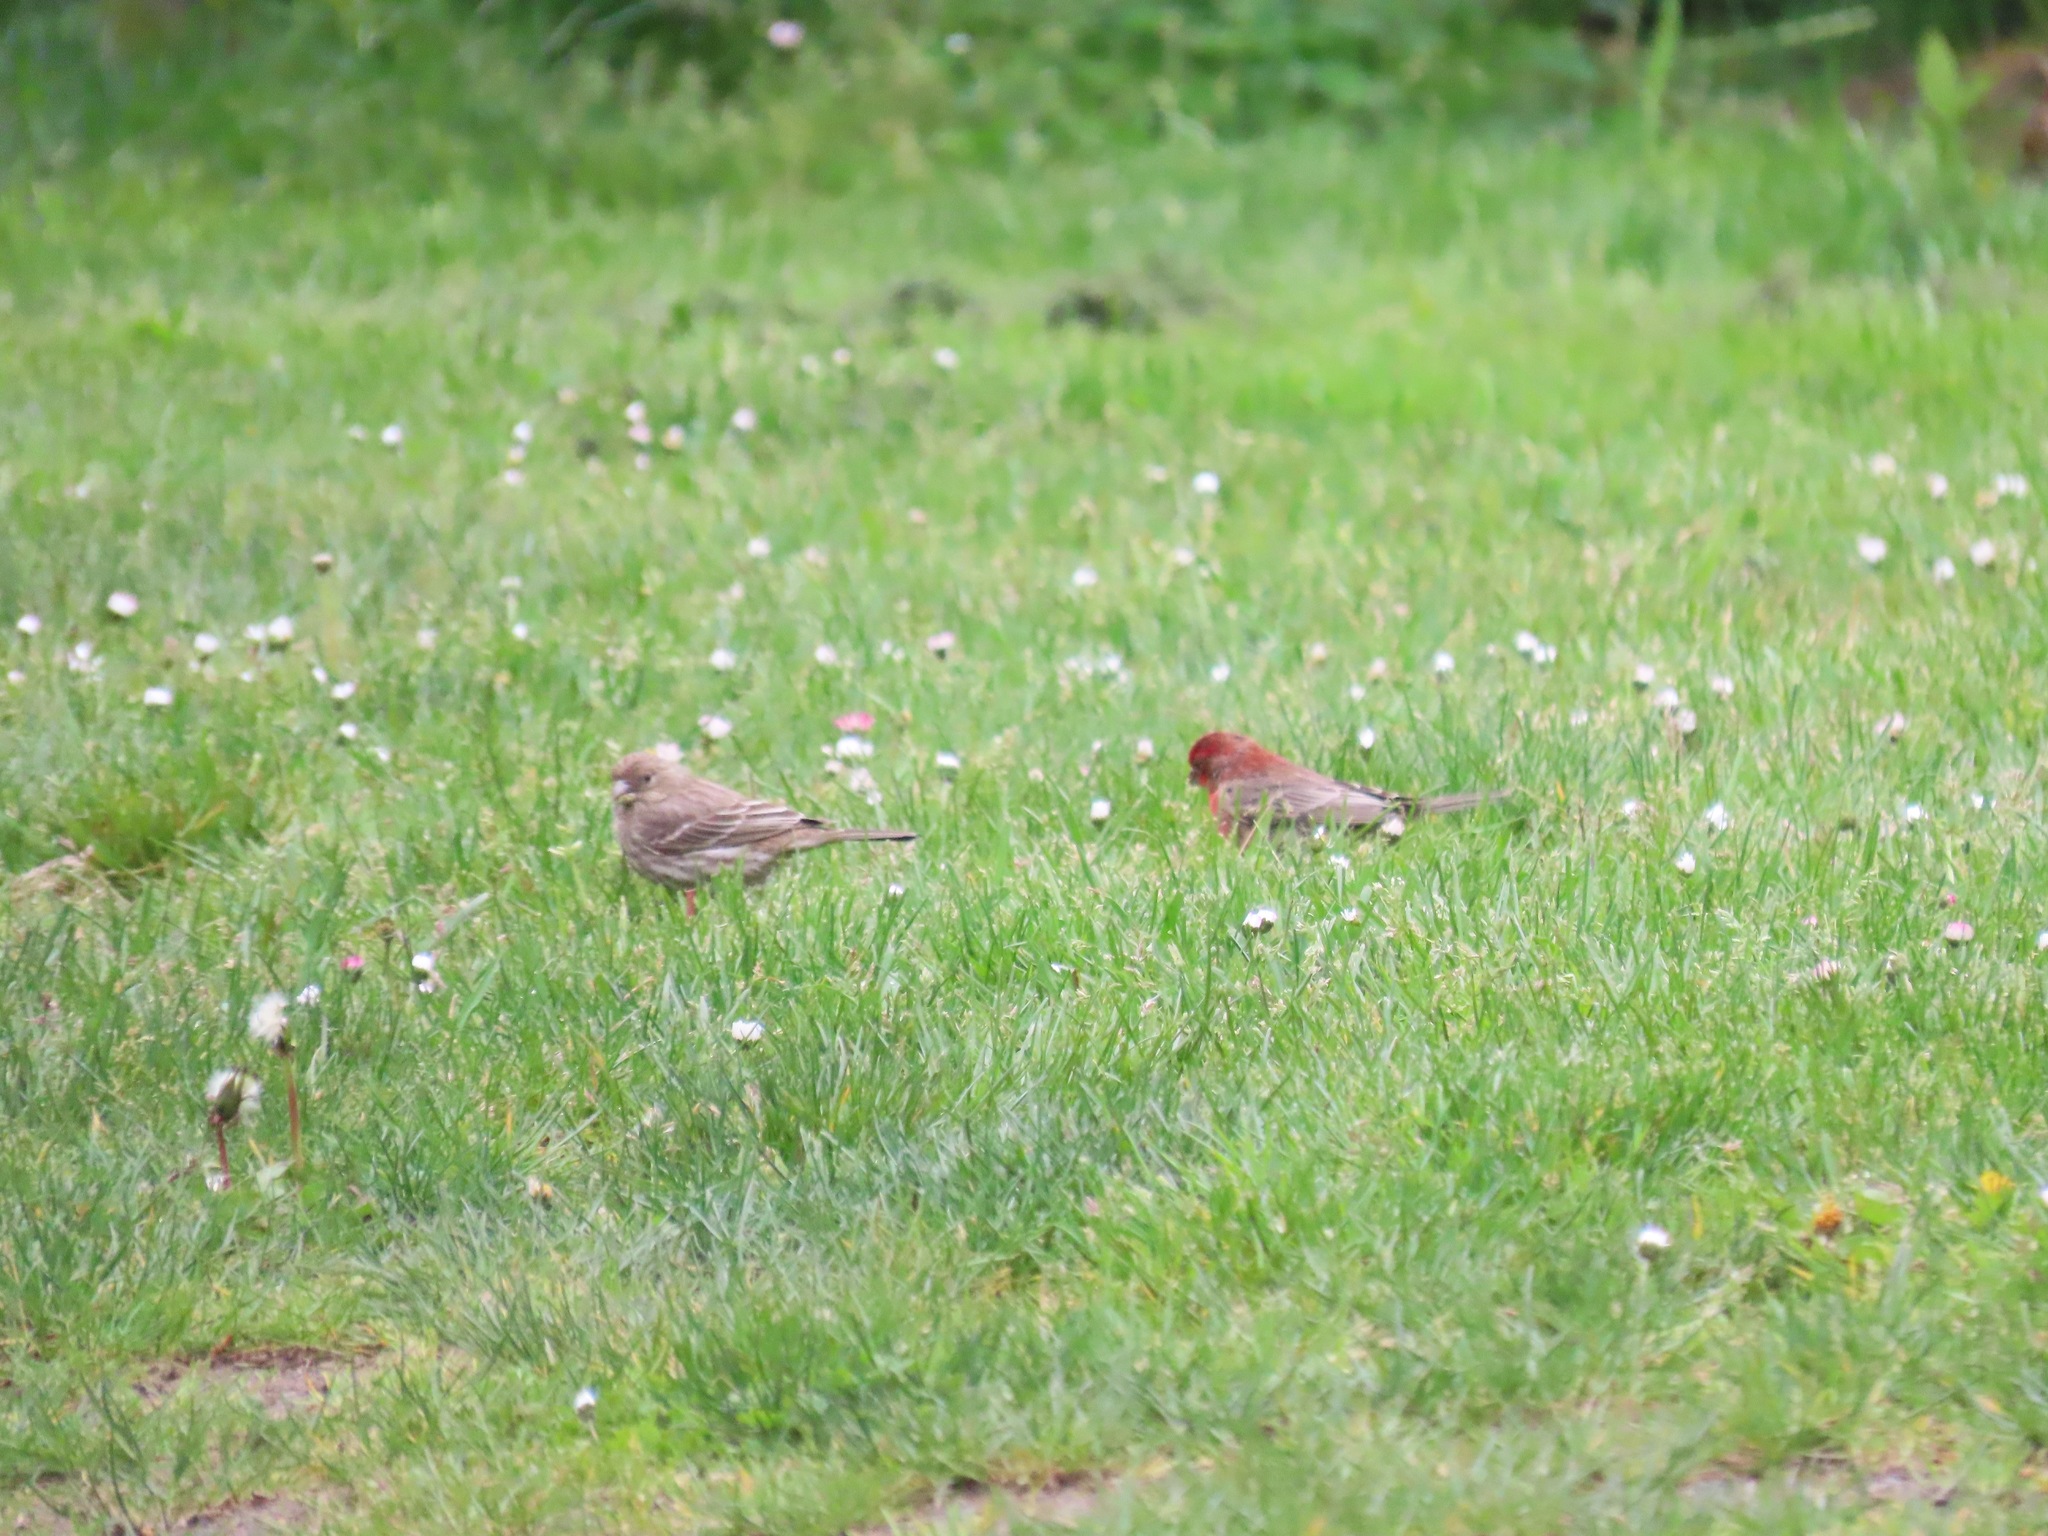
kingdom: Animalia
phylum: Chordata
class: Aves
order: Passeriformes
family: Fringillidae
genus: Haemorhous
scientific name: Haemorhous mexicanus
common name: House finch
